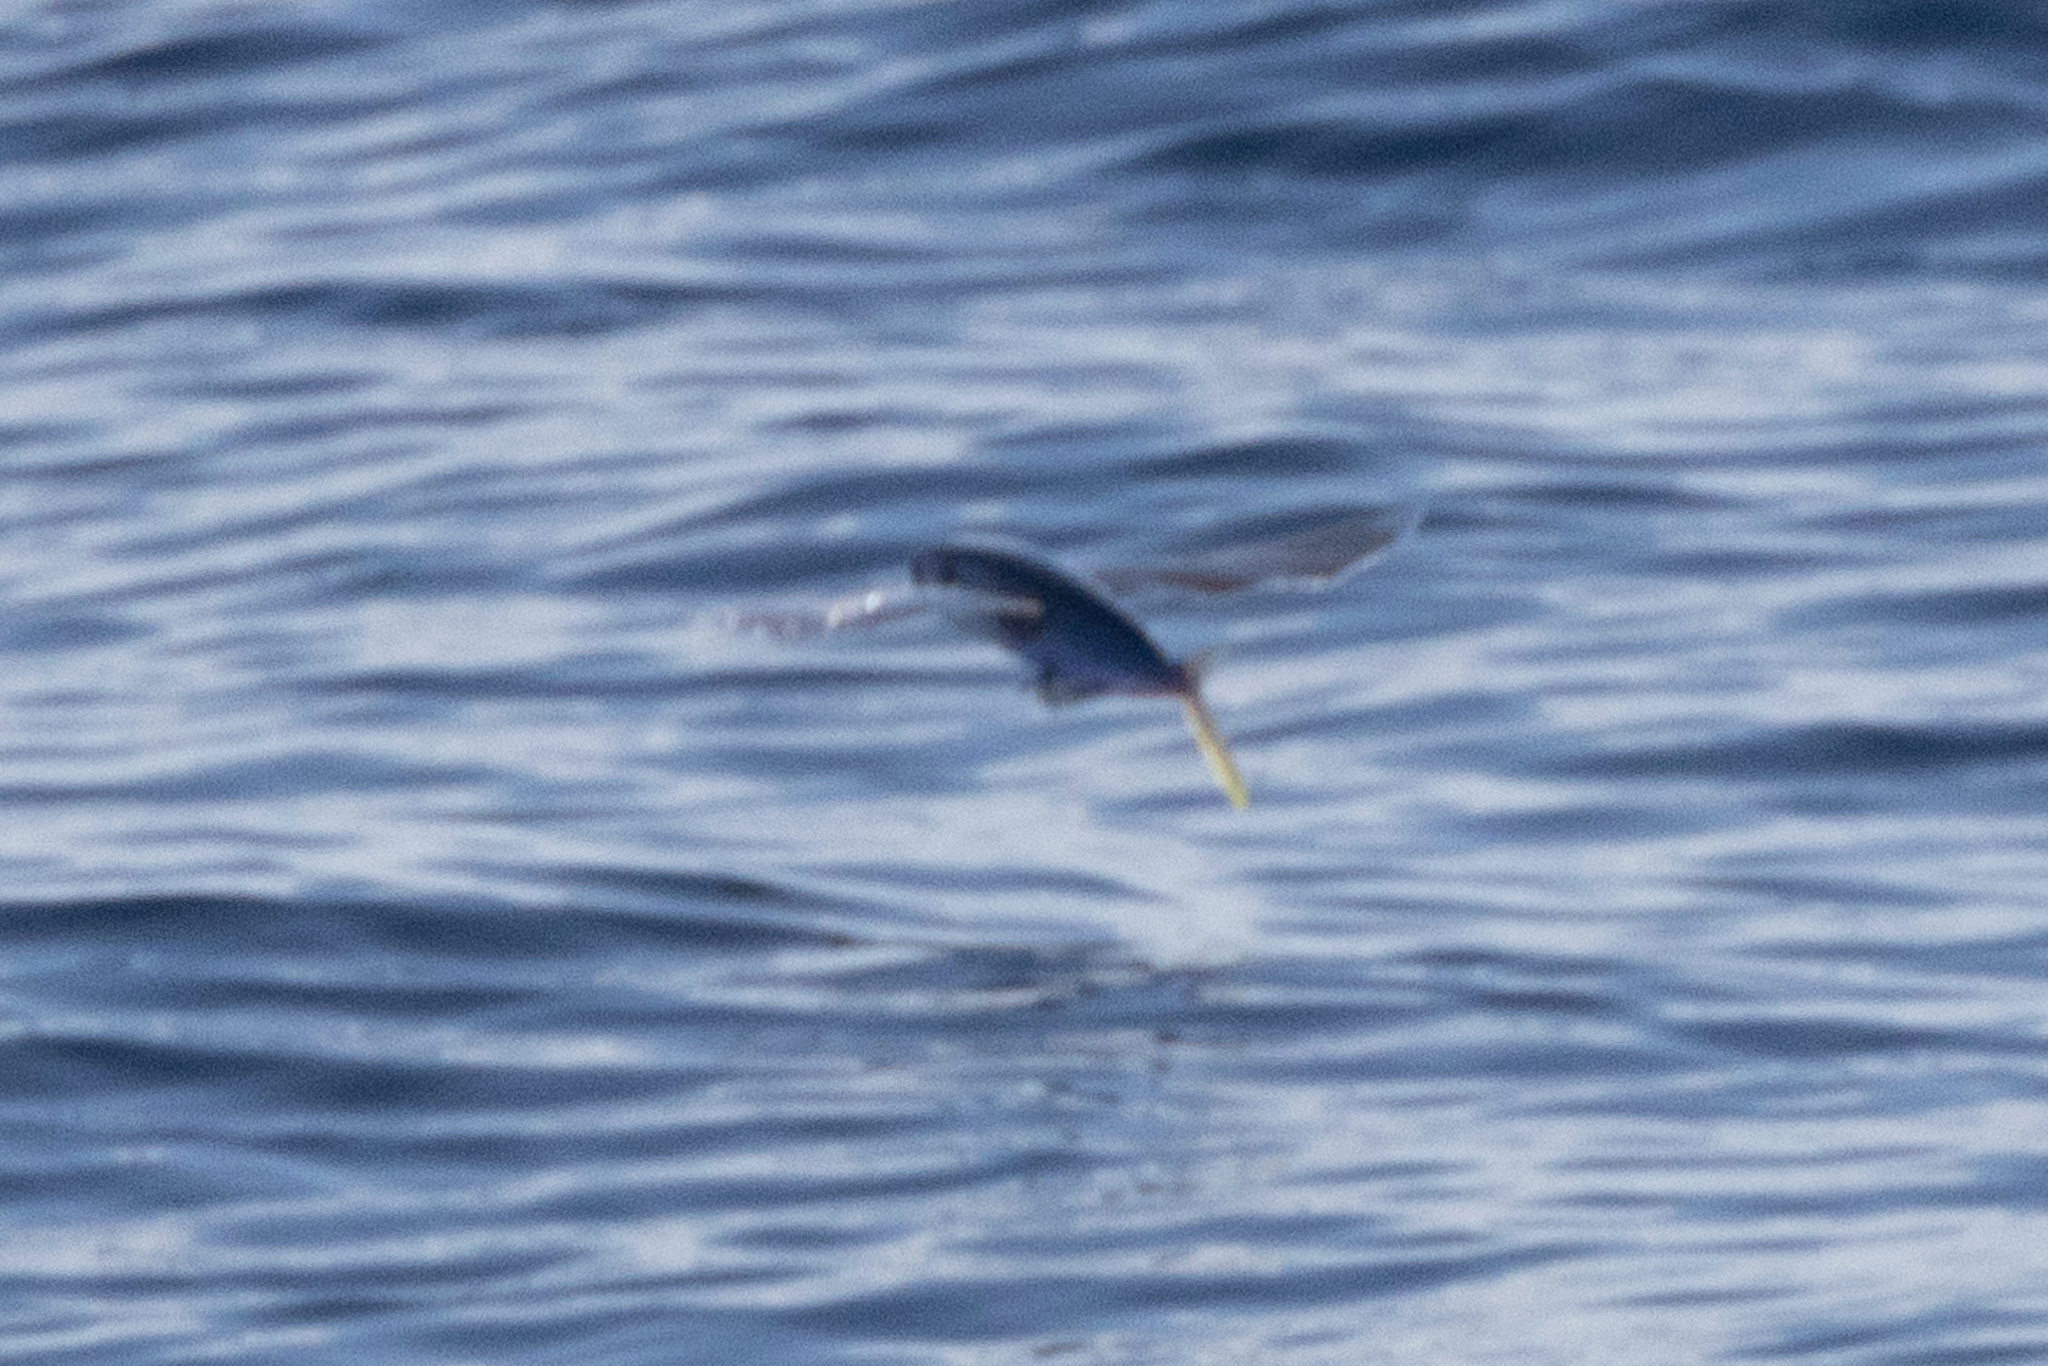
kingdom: Animalia
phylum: Chordata
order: Beloniformes
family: Exocoetidae
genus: Hirundichthys
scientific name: Hirundichthys volador
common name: Atlantic blackwing flyingfish
